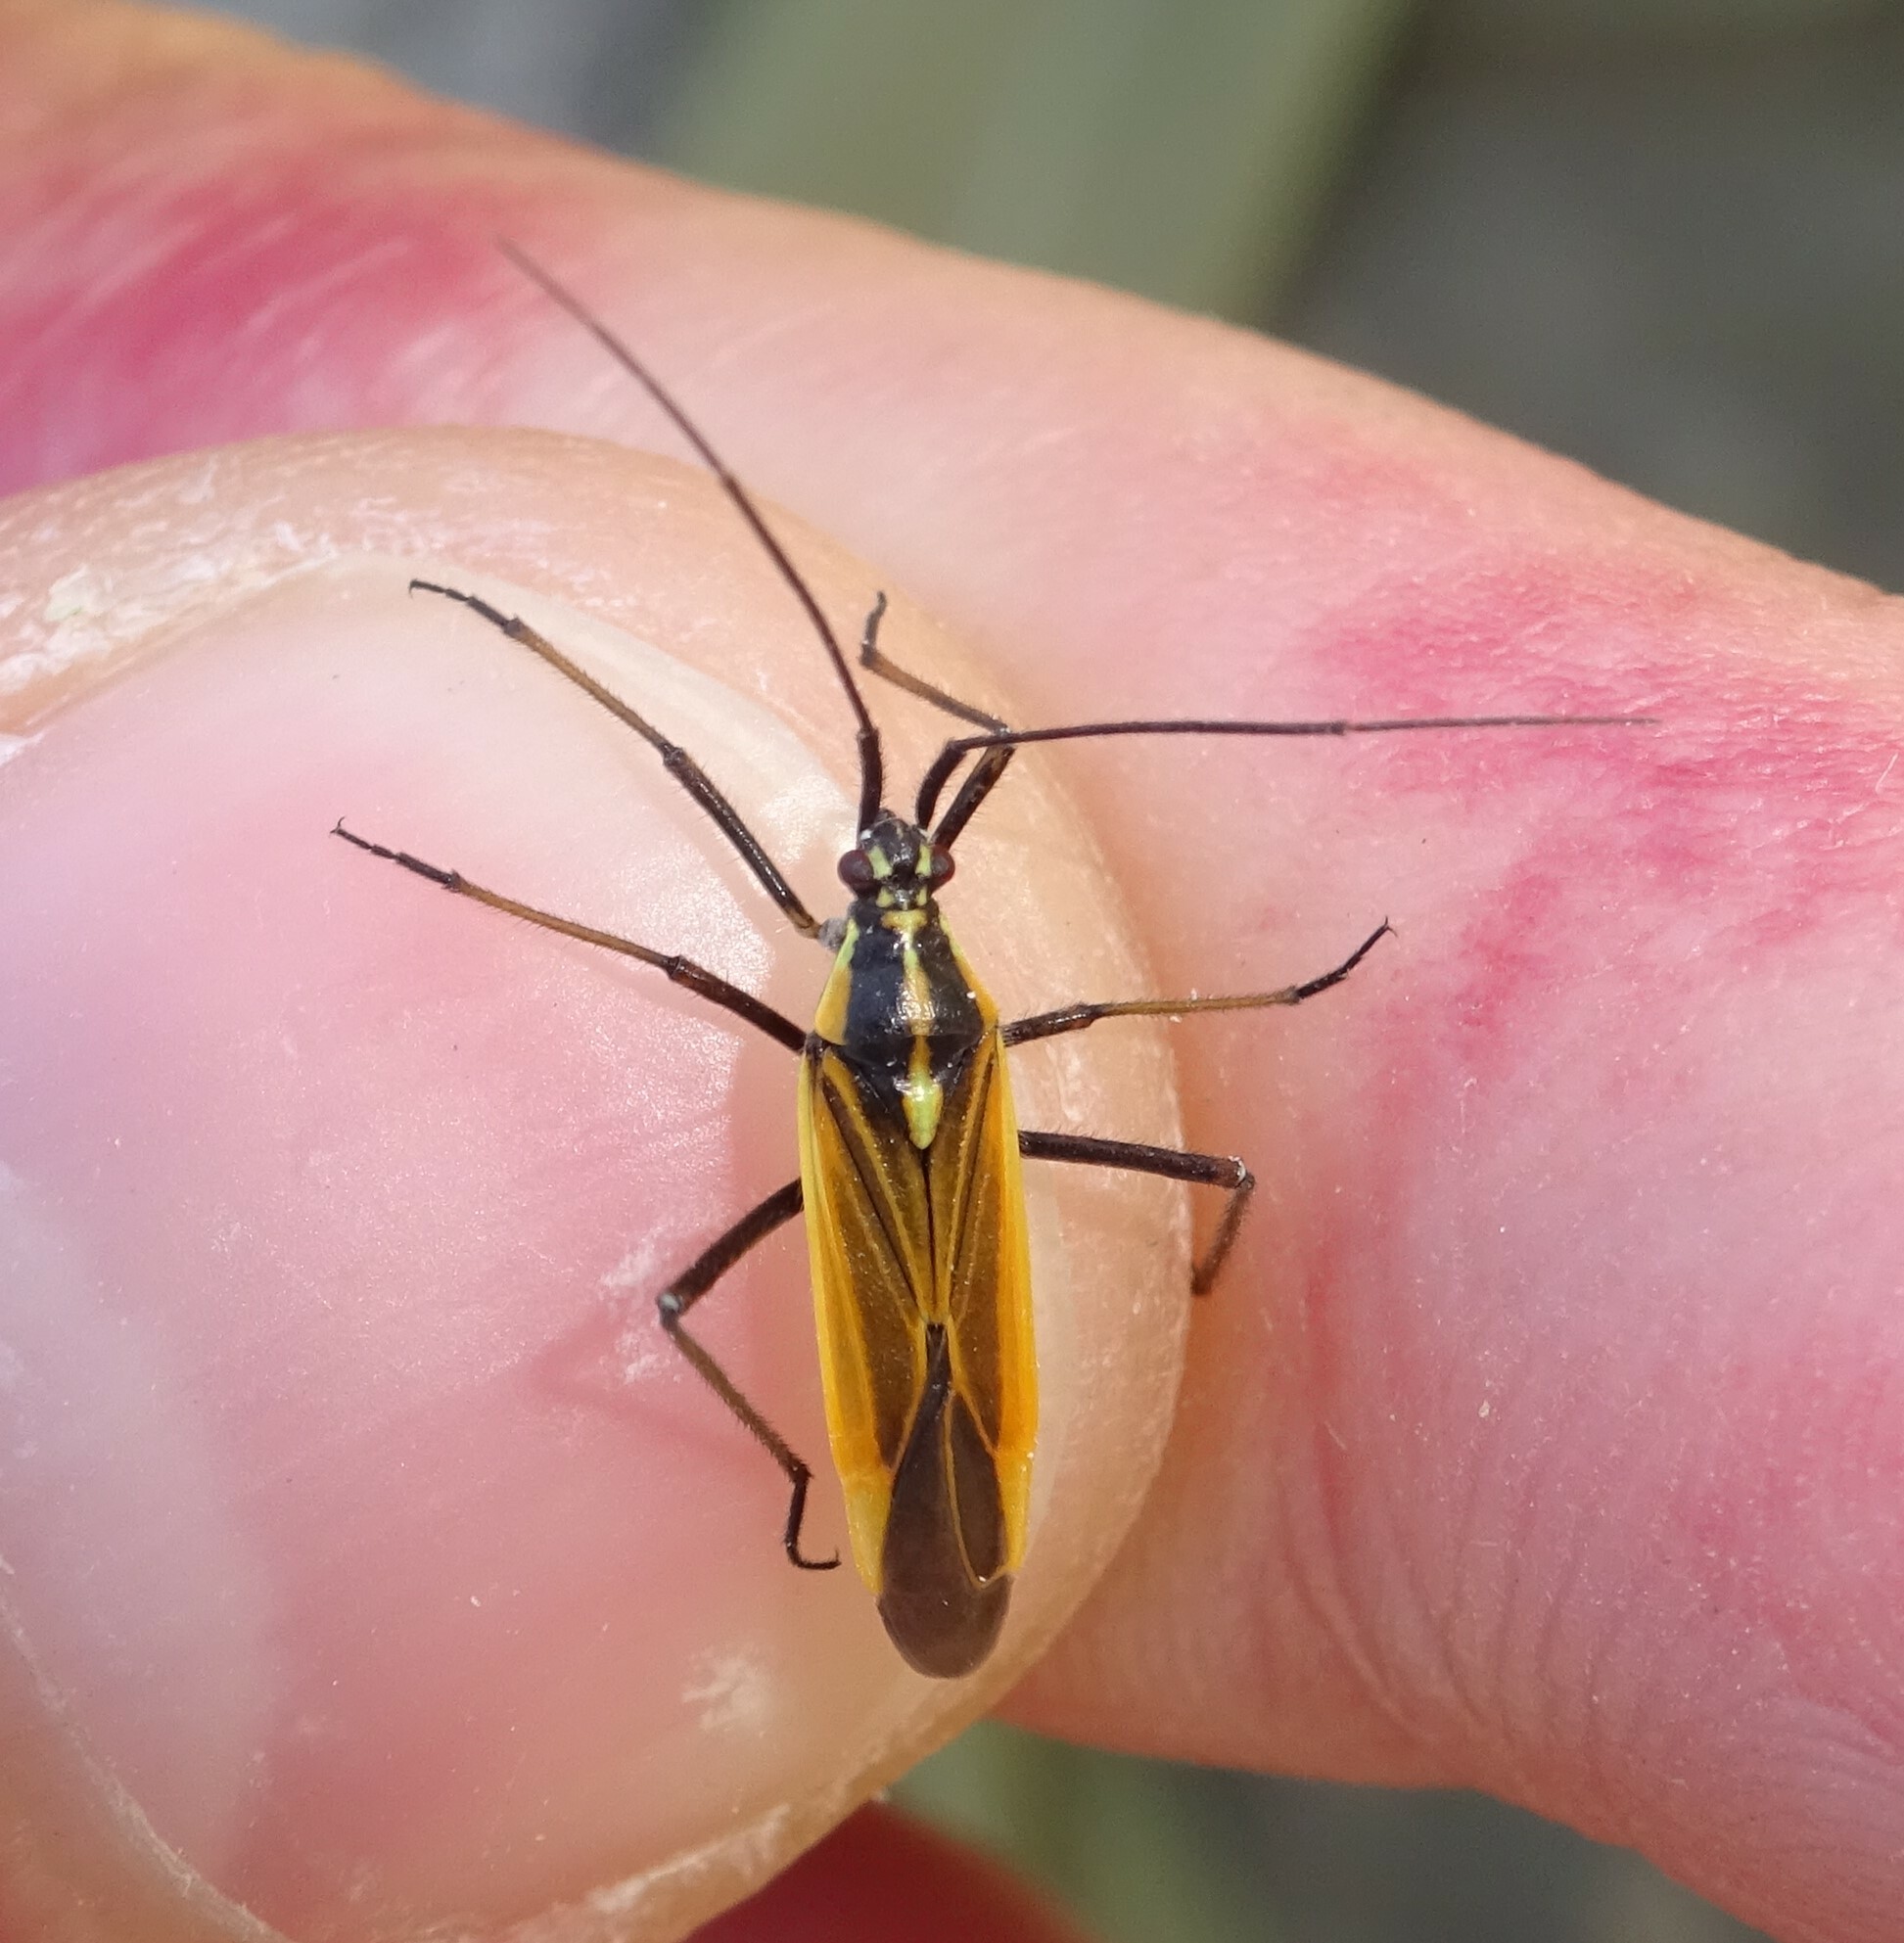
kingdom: Animalia
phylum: Arthropoda
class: Insecta
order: Hemiptera
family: Miridae
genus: Leptopterna
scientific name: Leptopterna dolabrata
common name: Meadow plant bug
